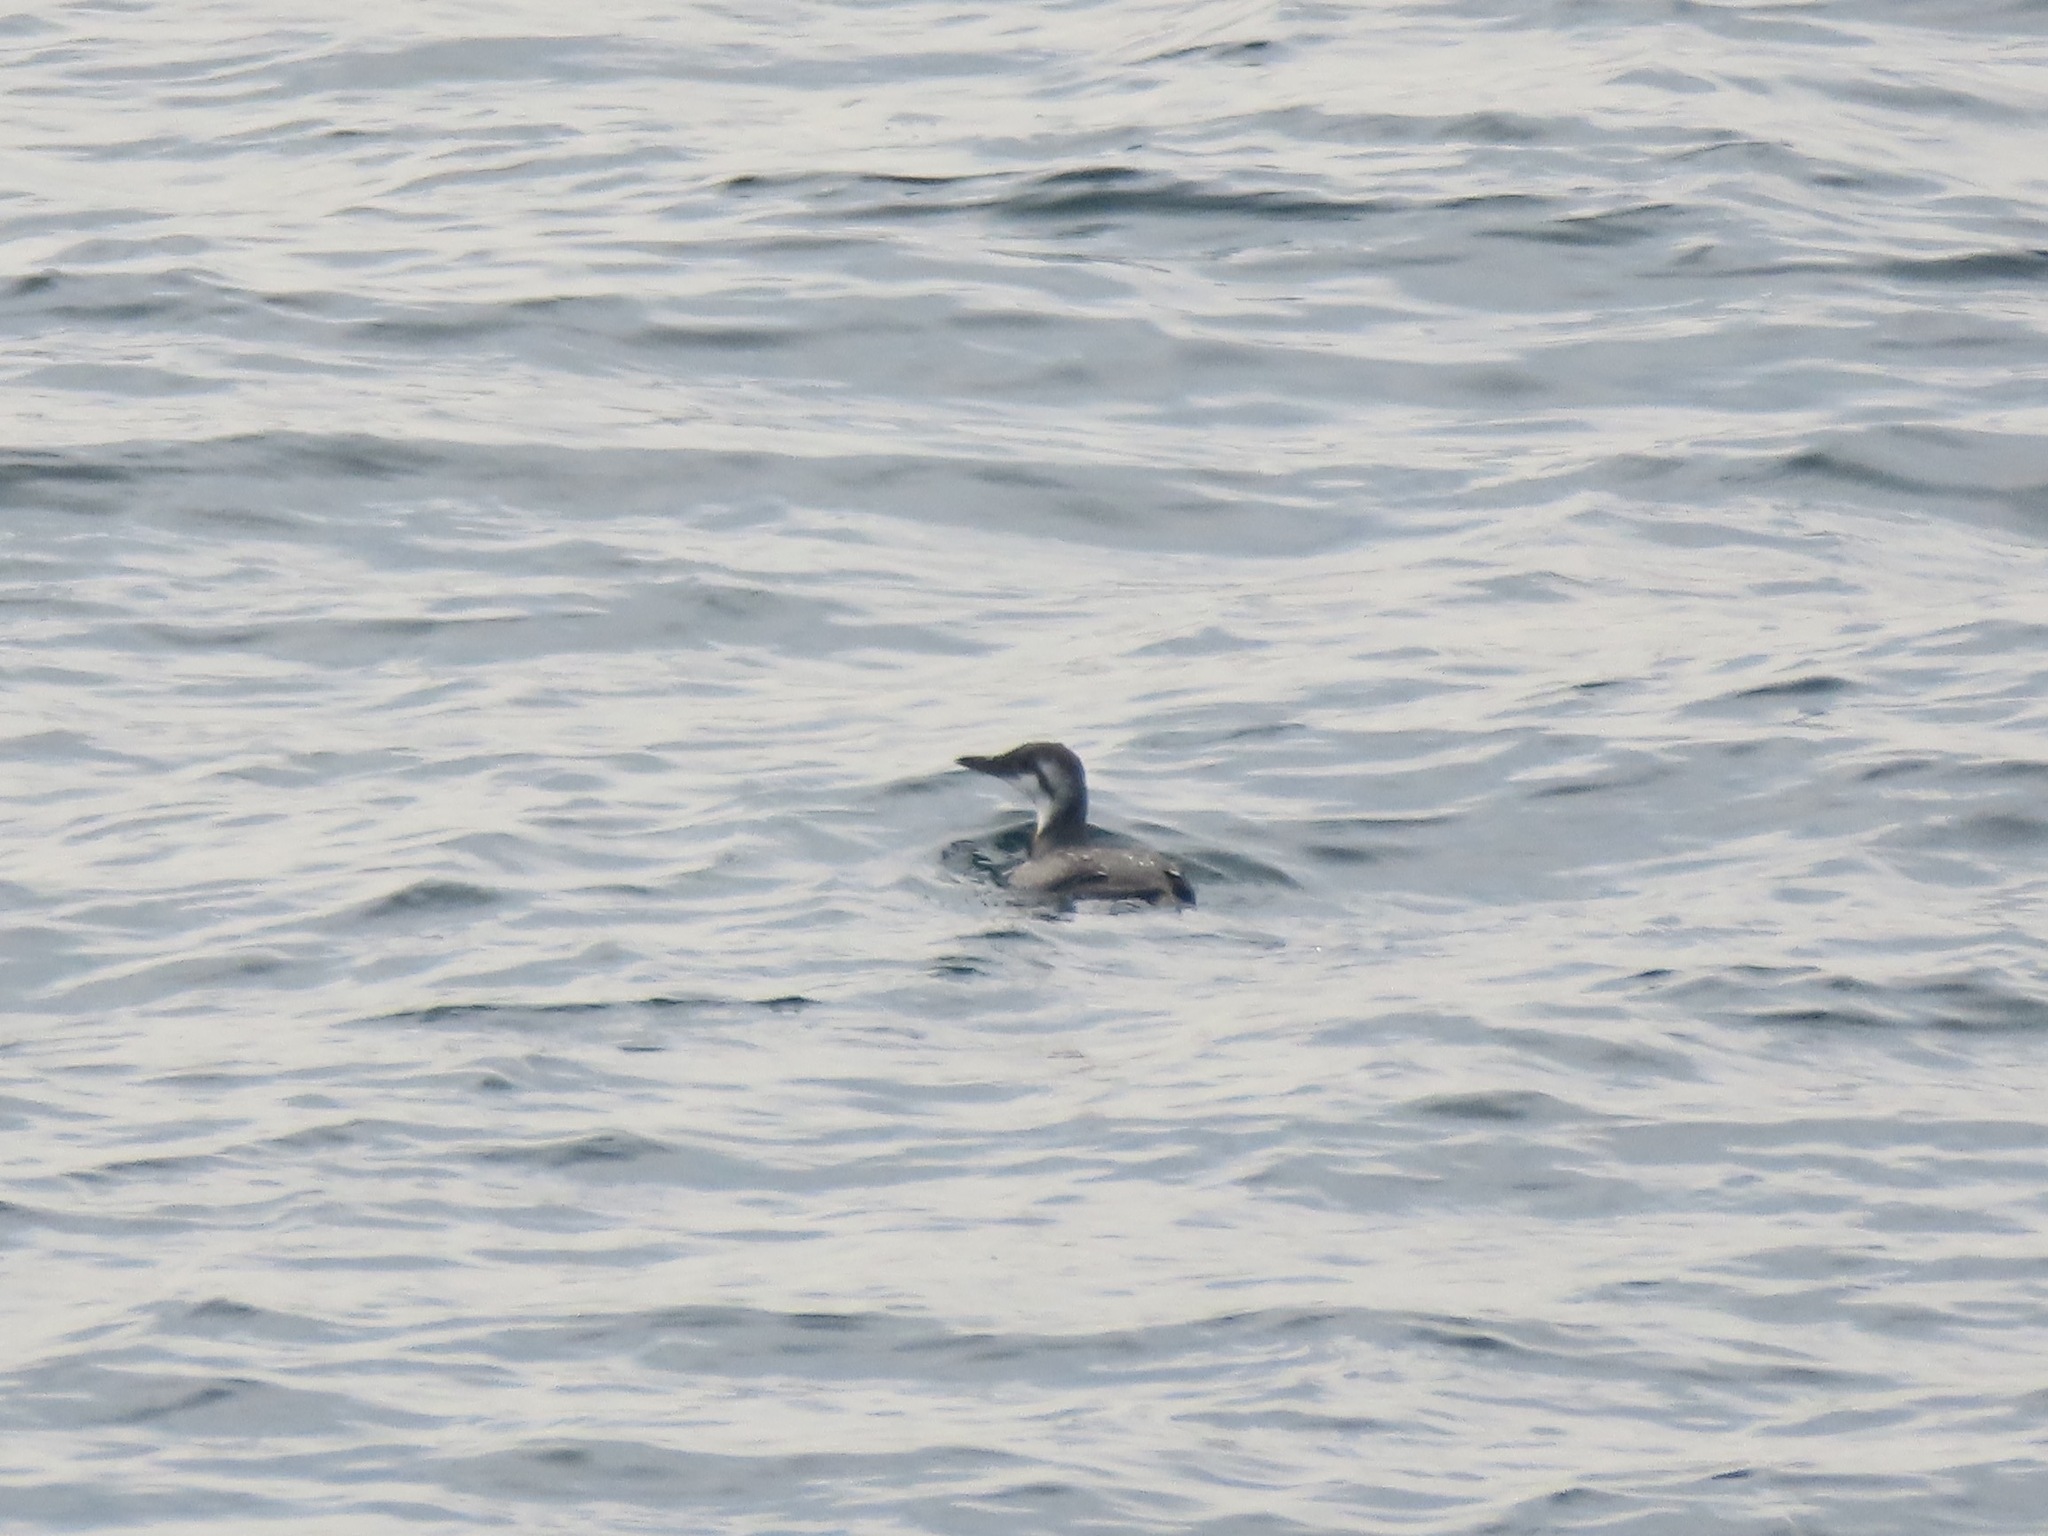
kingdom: Animalia
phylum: Chordata
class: Aves
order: Charadriiformes
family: Alcidae
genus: Uria
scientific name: Uria aalge
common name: Common murre
